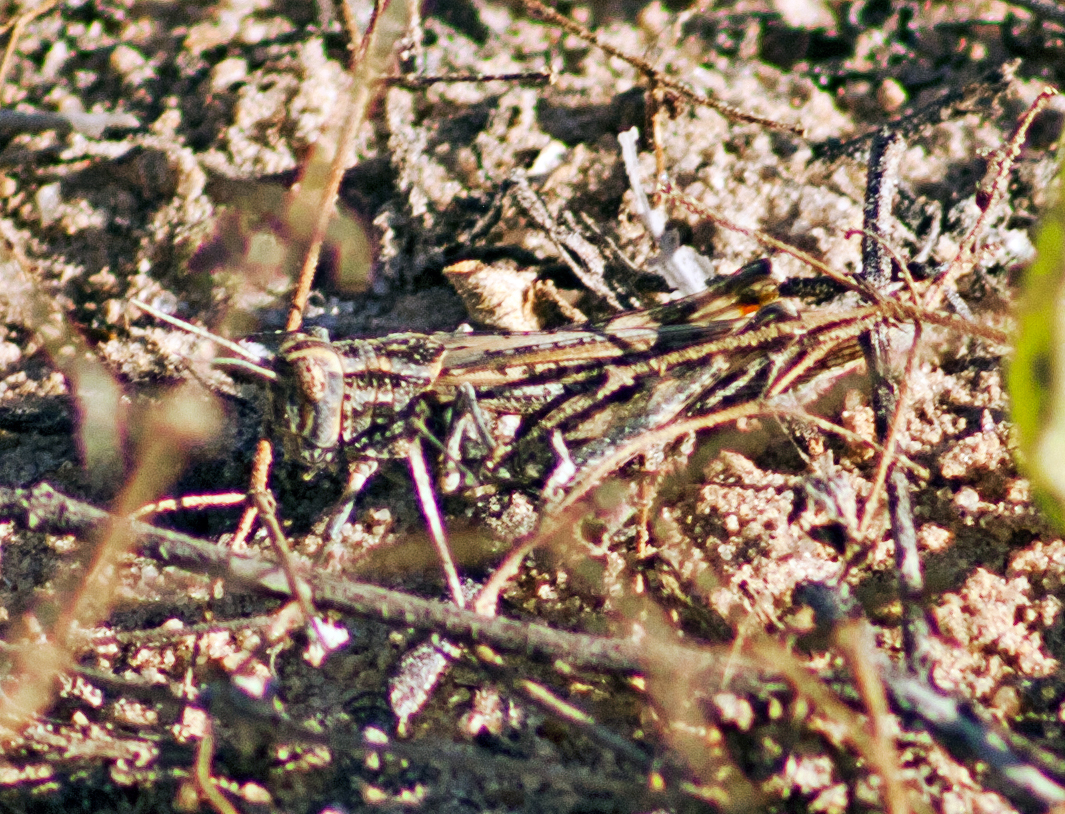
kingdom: Animalia
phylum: Arthropoda
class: Insecta
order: Orthoptera
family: Acrididae
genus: Collitera
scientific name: Collitera variegata
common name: Speckled grasshopper
